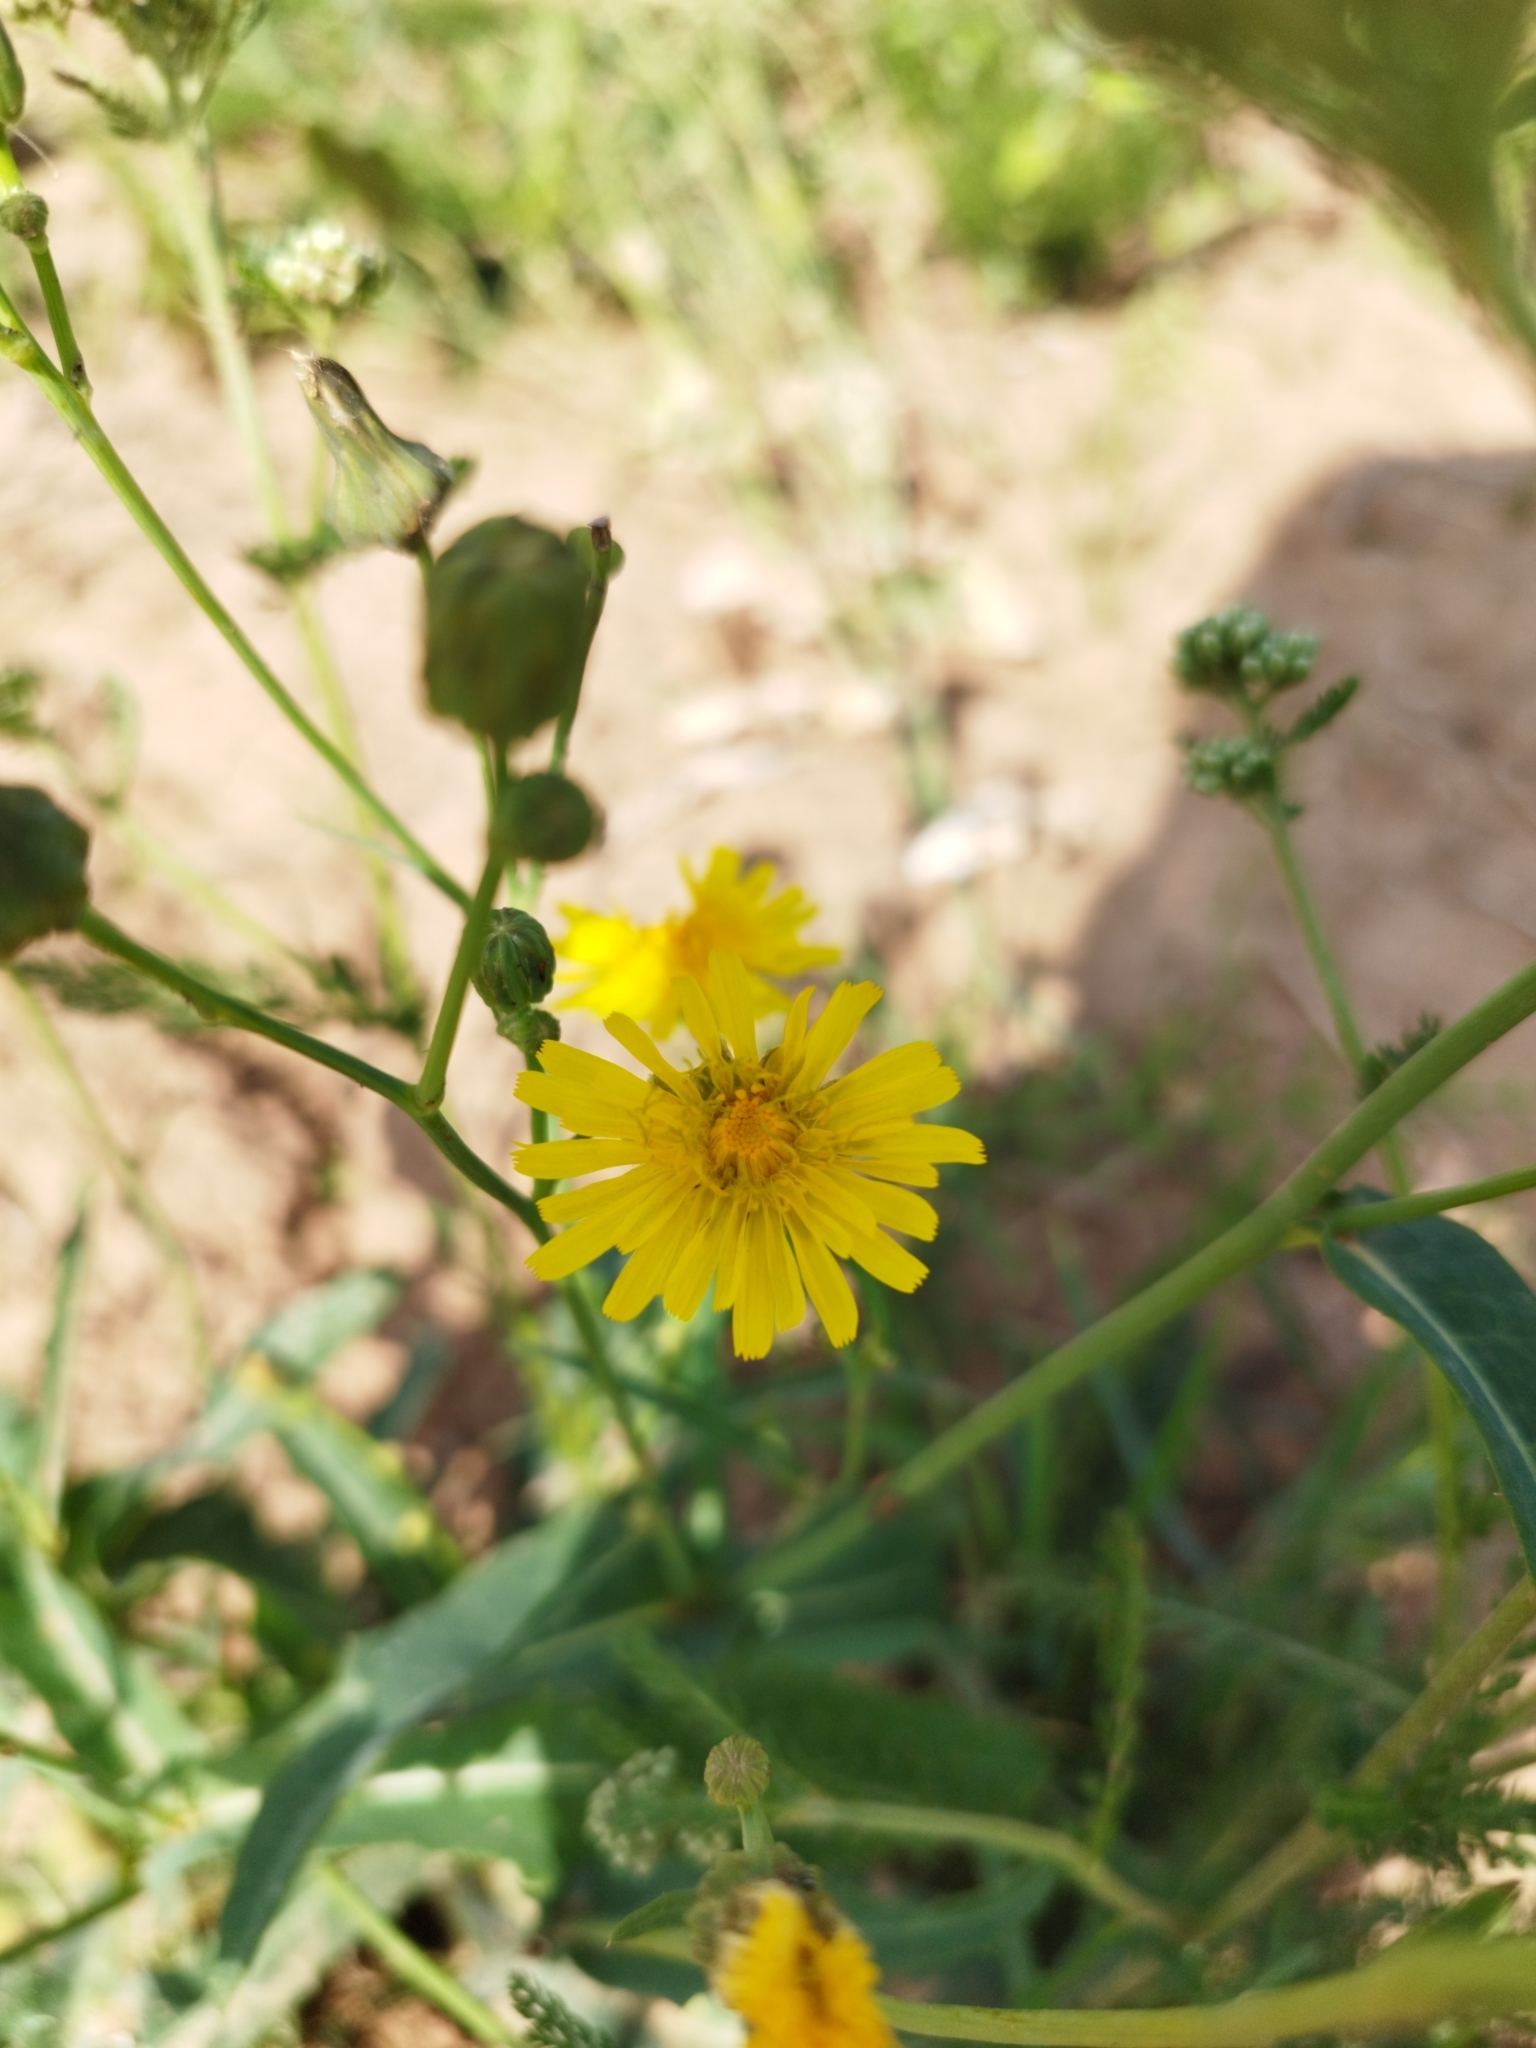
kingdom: Plantae
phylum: Tracheophyta
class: Magnoliopsida
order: Asterales
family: Asteraceae
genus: Hieracium
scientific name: Hieracium umbellatum
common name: Northern hawkweed
